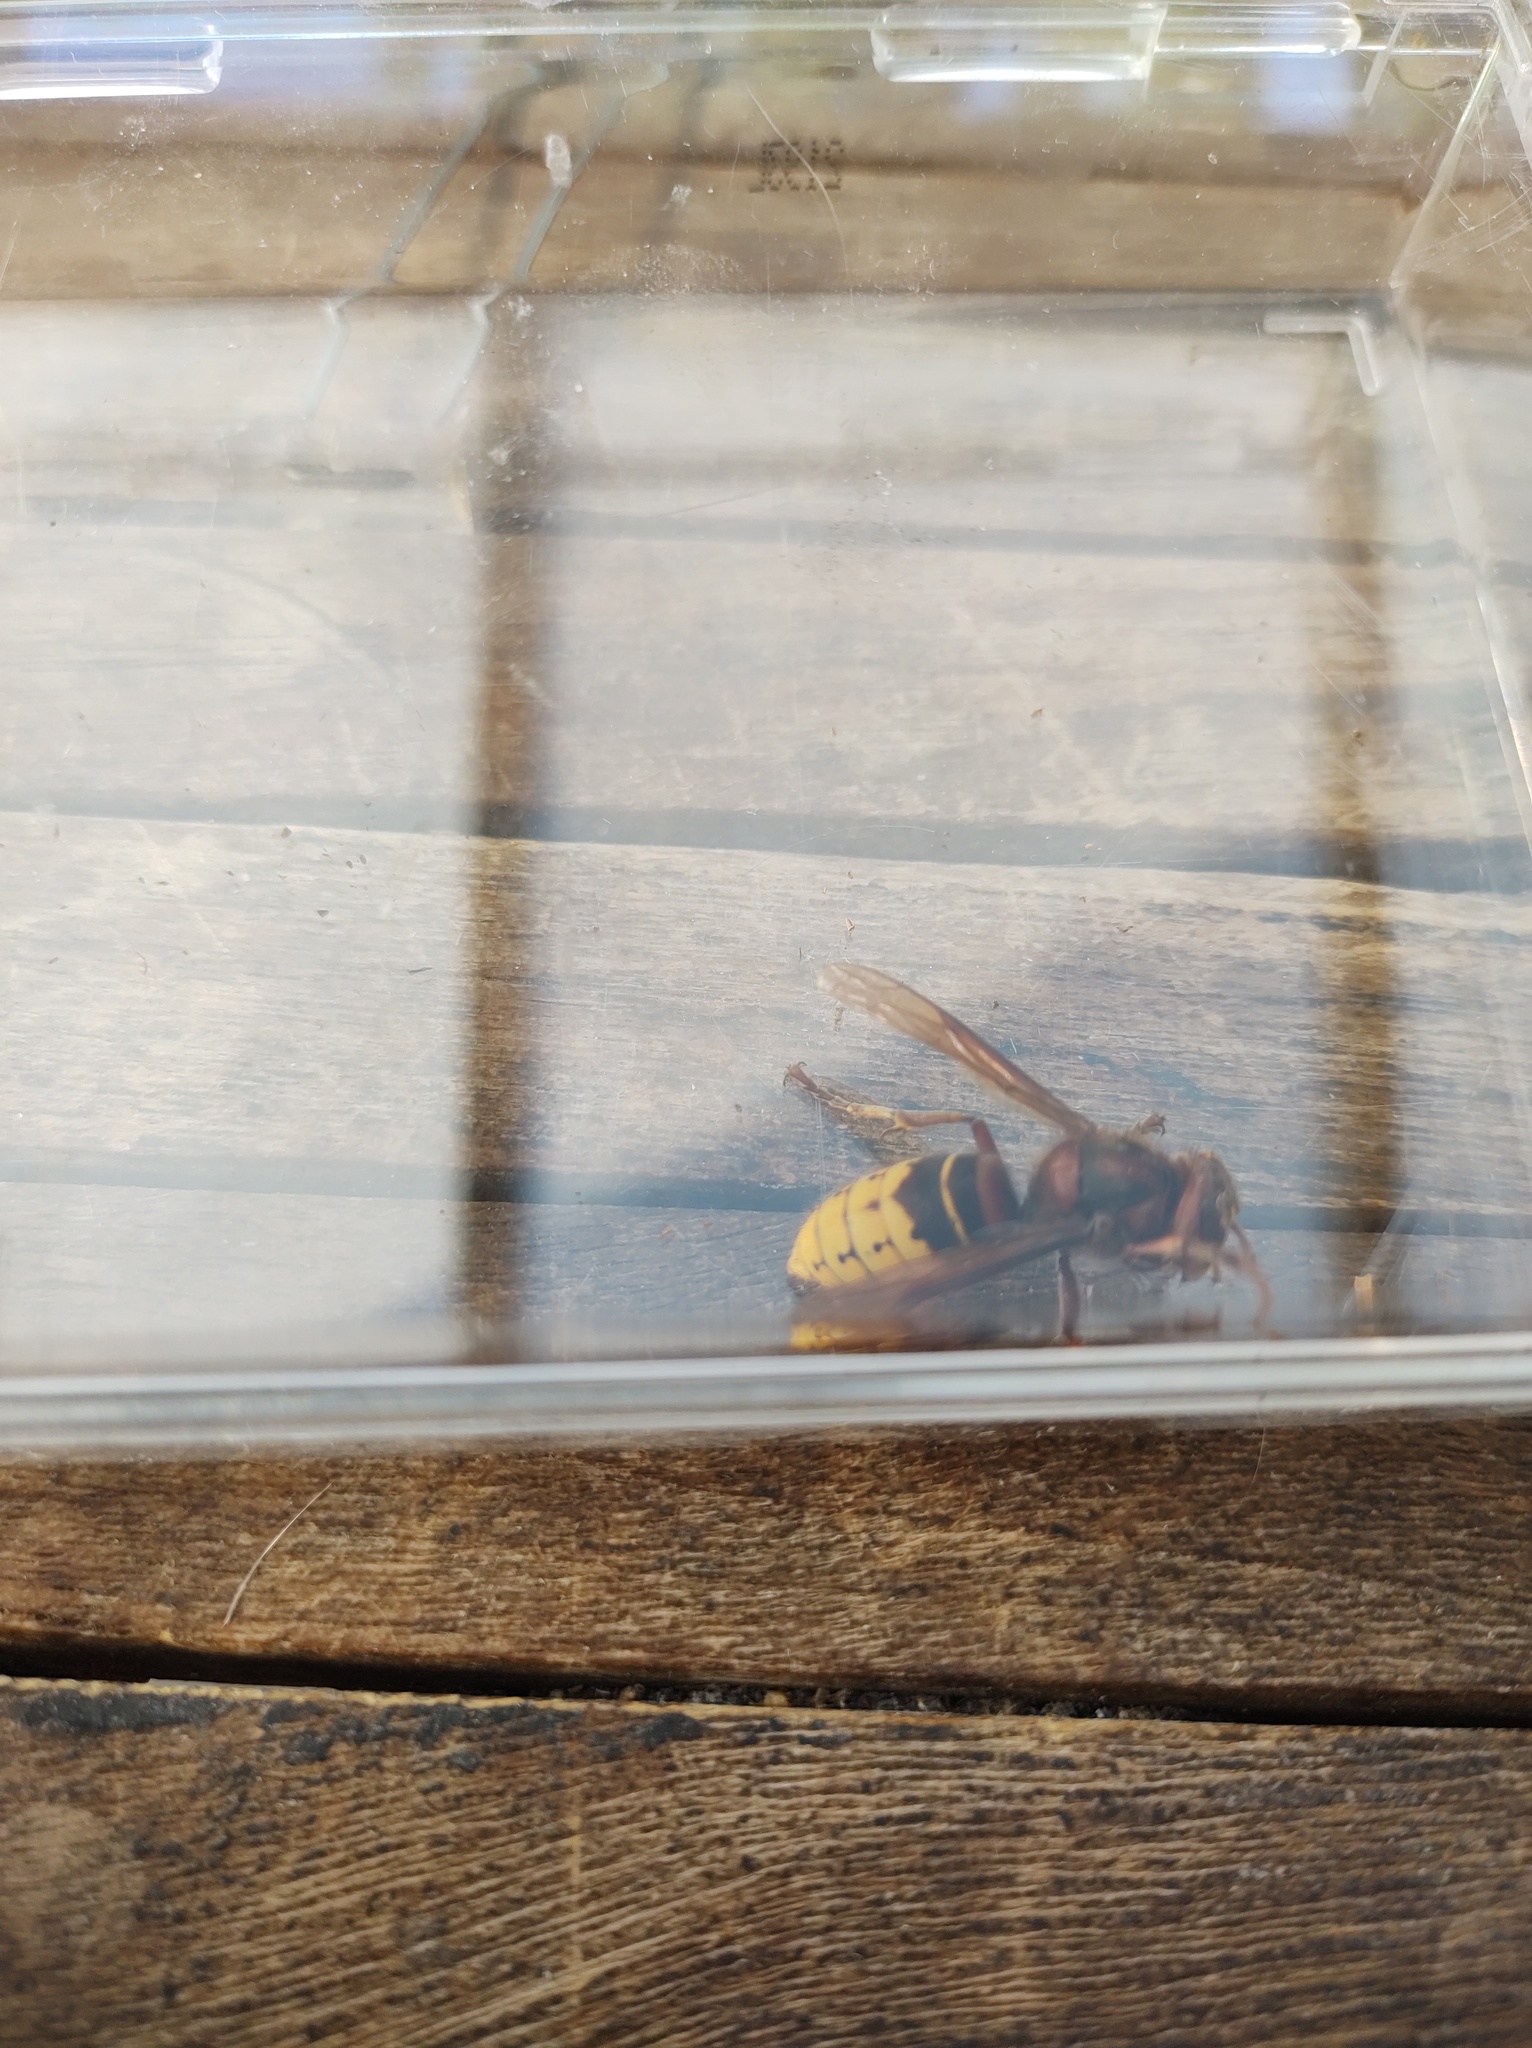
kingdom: Animalia
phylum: Arthropoda
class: Insecta
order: Hymenoptera
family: Vespidae
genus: Vespa
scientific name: Vespa crabro
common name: Hornet
